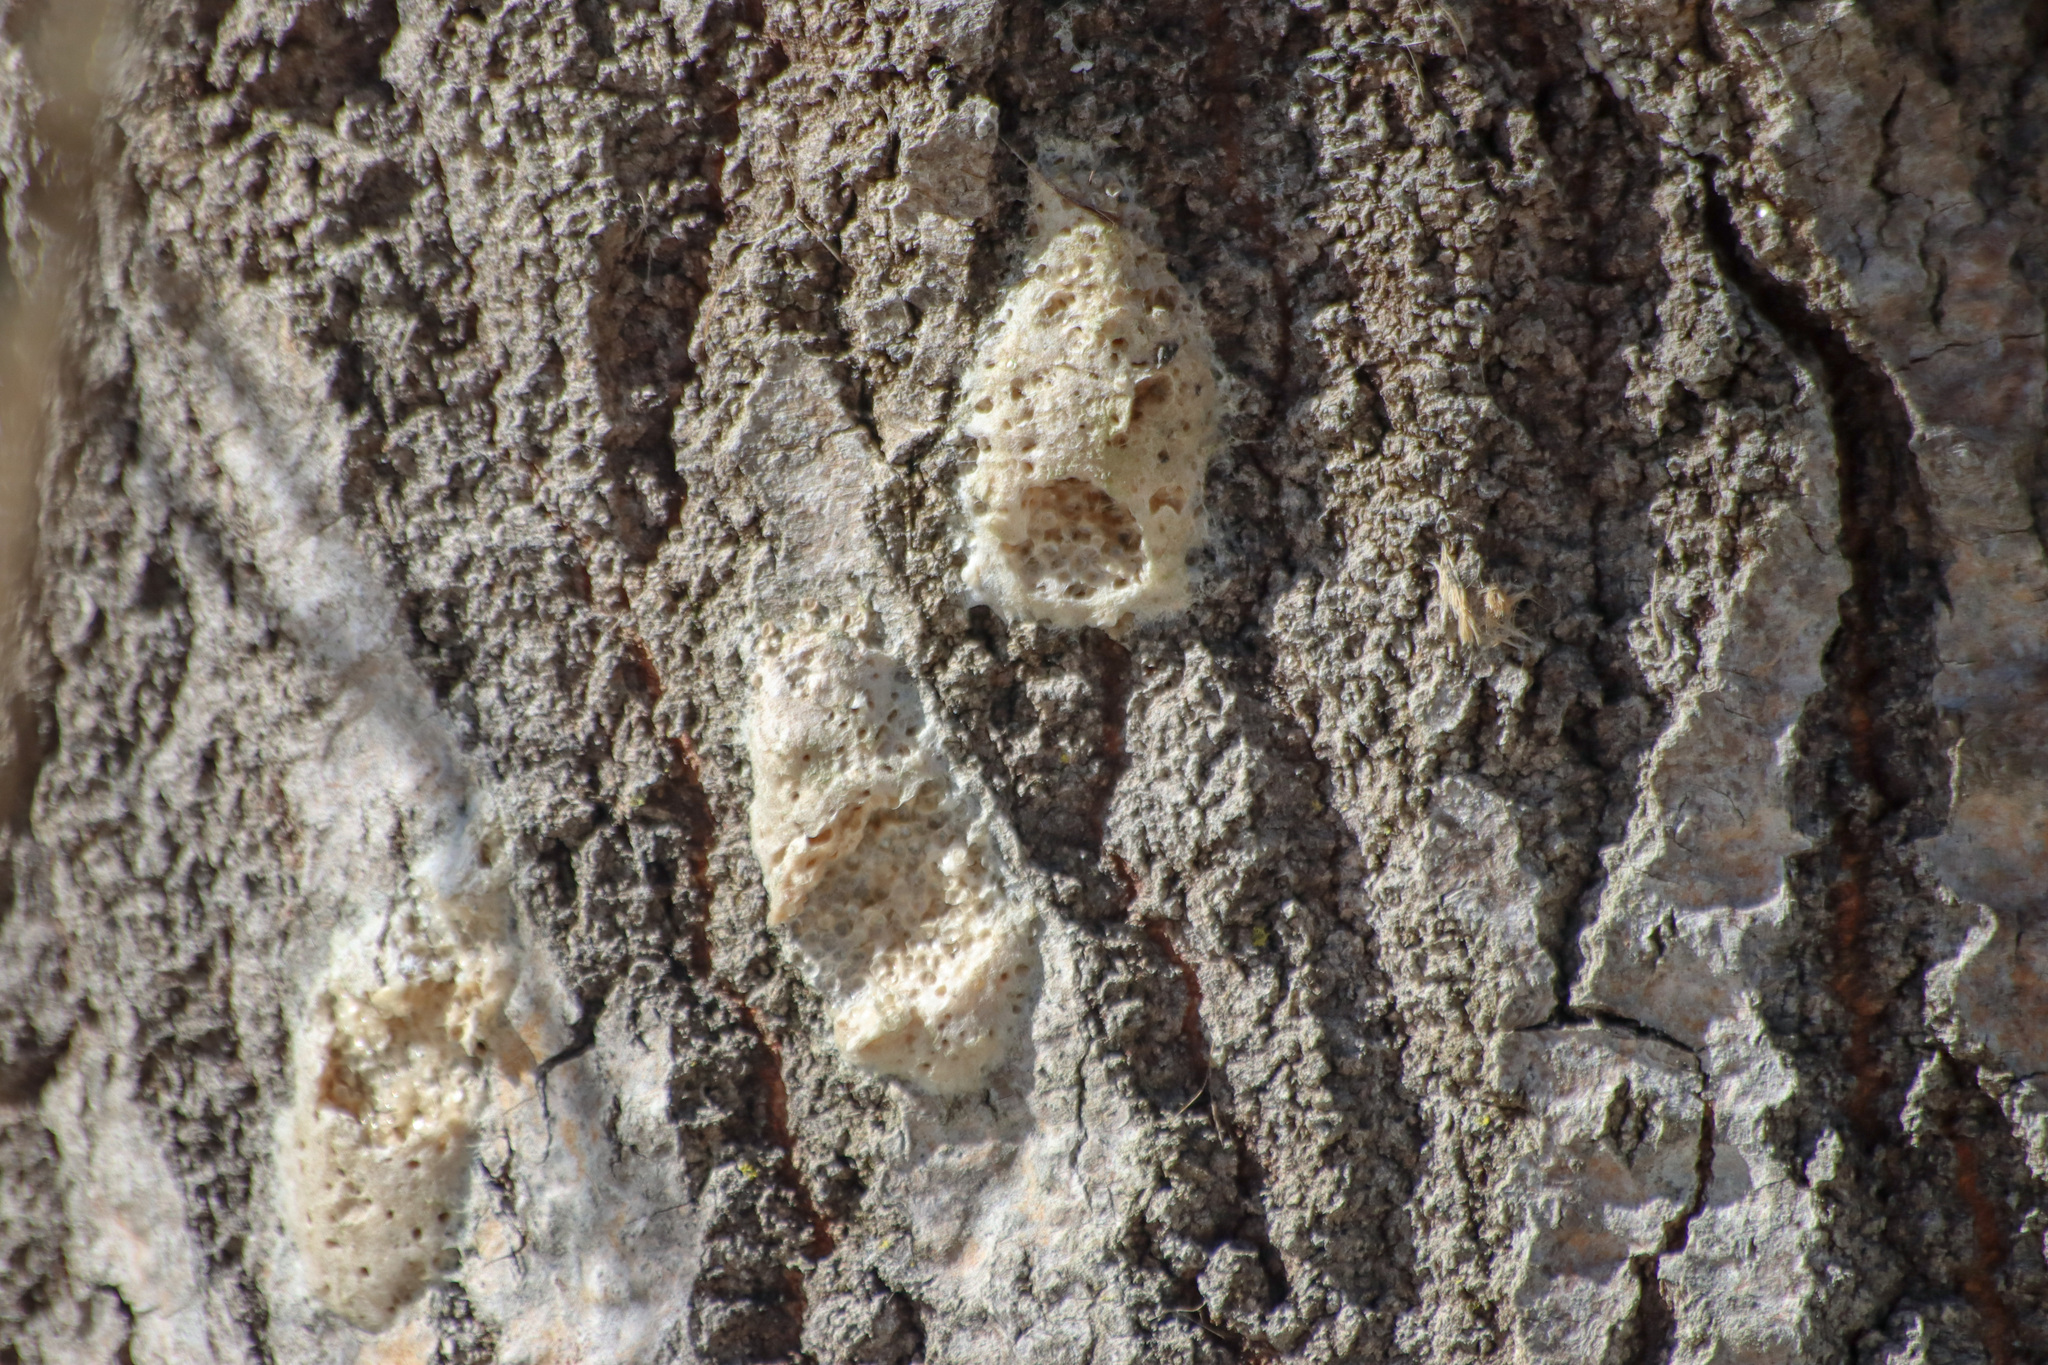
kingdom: Animalia
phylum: Arthropoda
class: Insecta
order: Lepidoptera
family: Erebidae
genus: Lymantria
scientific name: Lymantria dispar
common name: Gypsy moth
